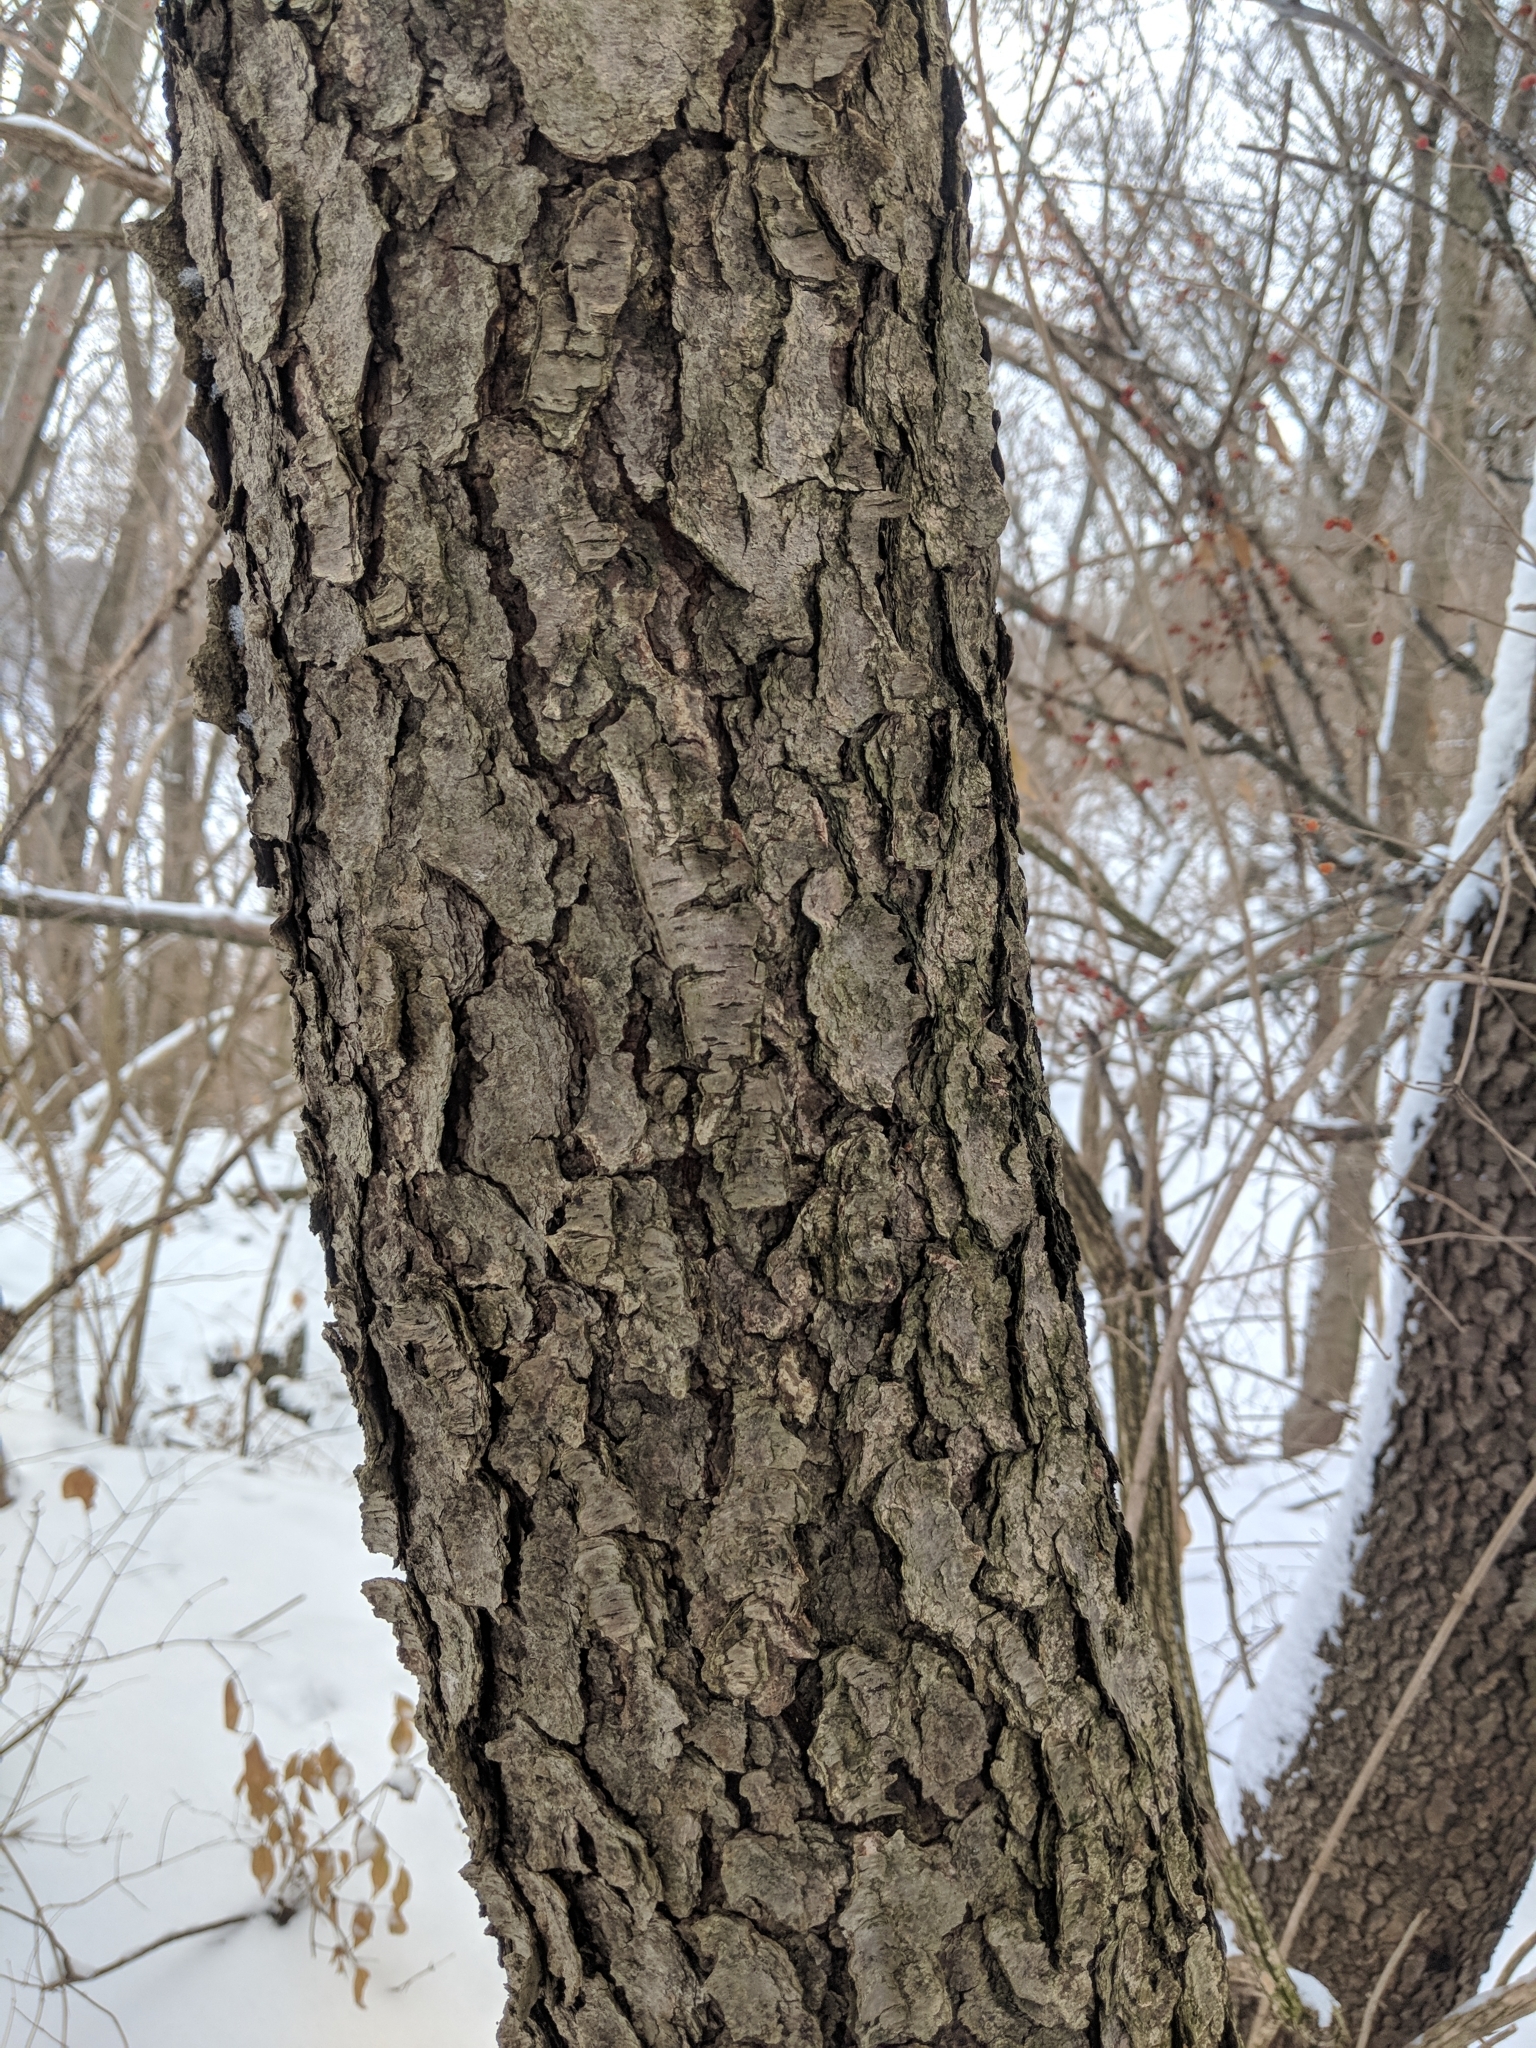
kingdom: Plantae
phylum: Tracheophyta
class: Magnoliopsida
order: Rosales
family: Rosaceae
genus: Prunus
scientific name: Prunus serotina
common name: Black cherry
